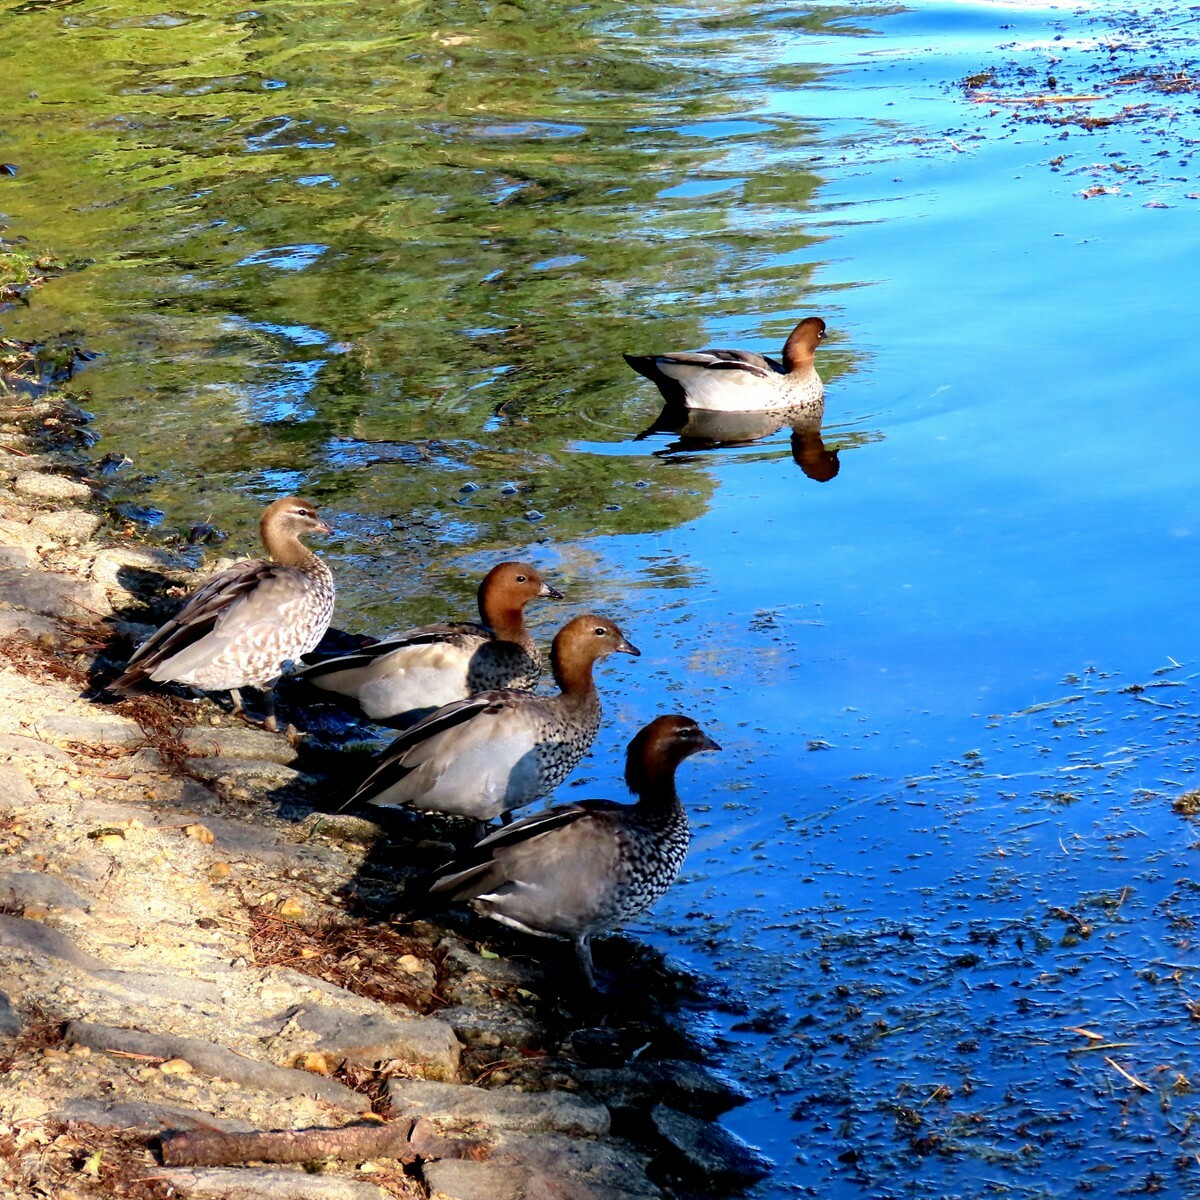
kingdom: Animalia
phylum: Chordata
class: Aves
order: Anseriformes
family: Anatidae
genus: Chenonetta
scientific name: Chenonetta jubata
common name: Maned duck
